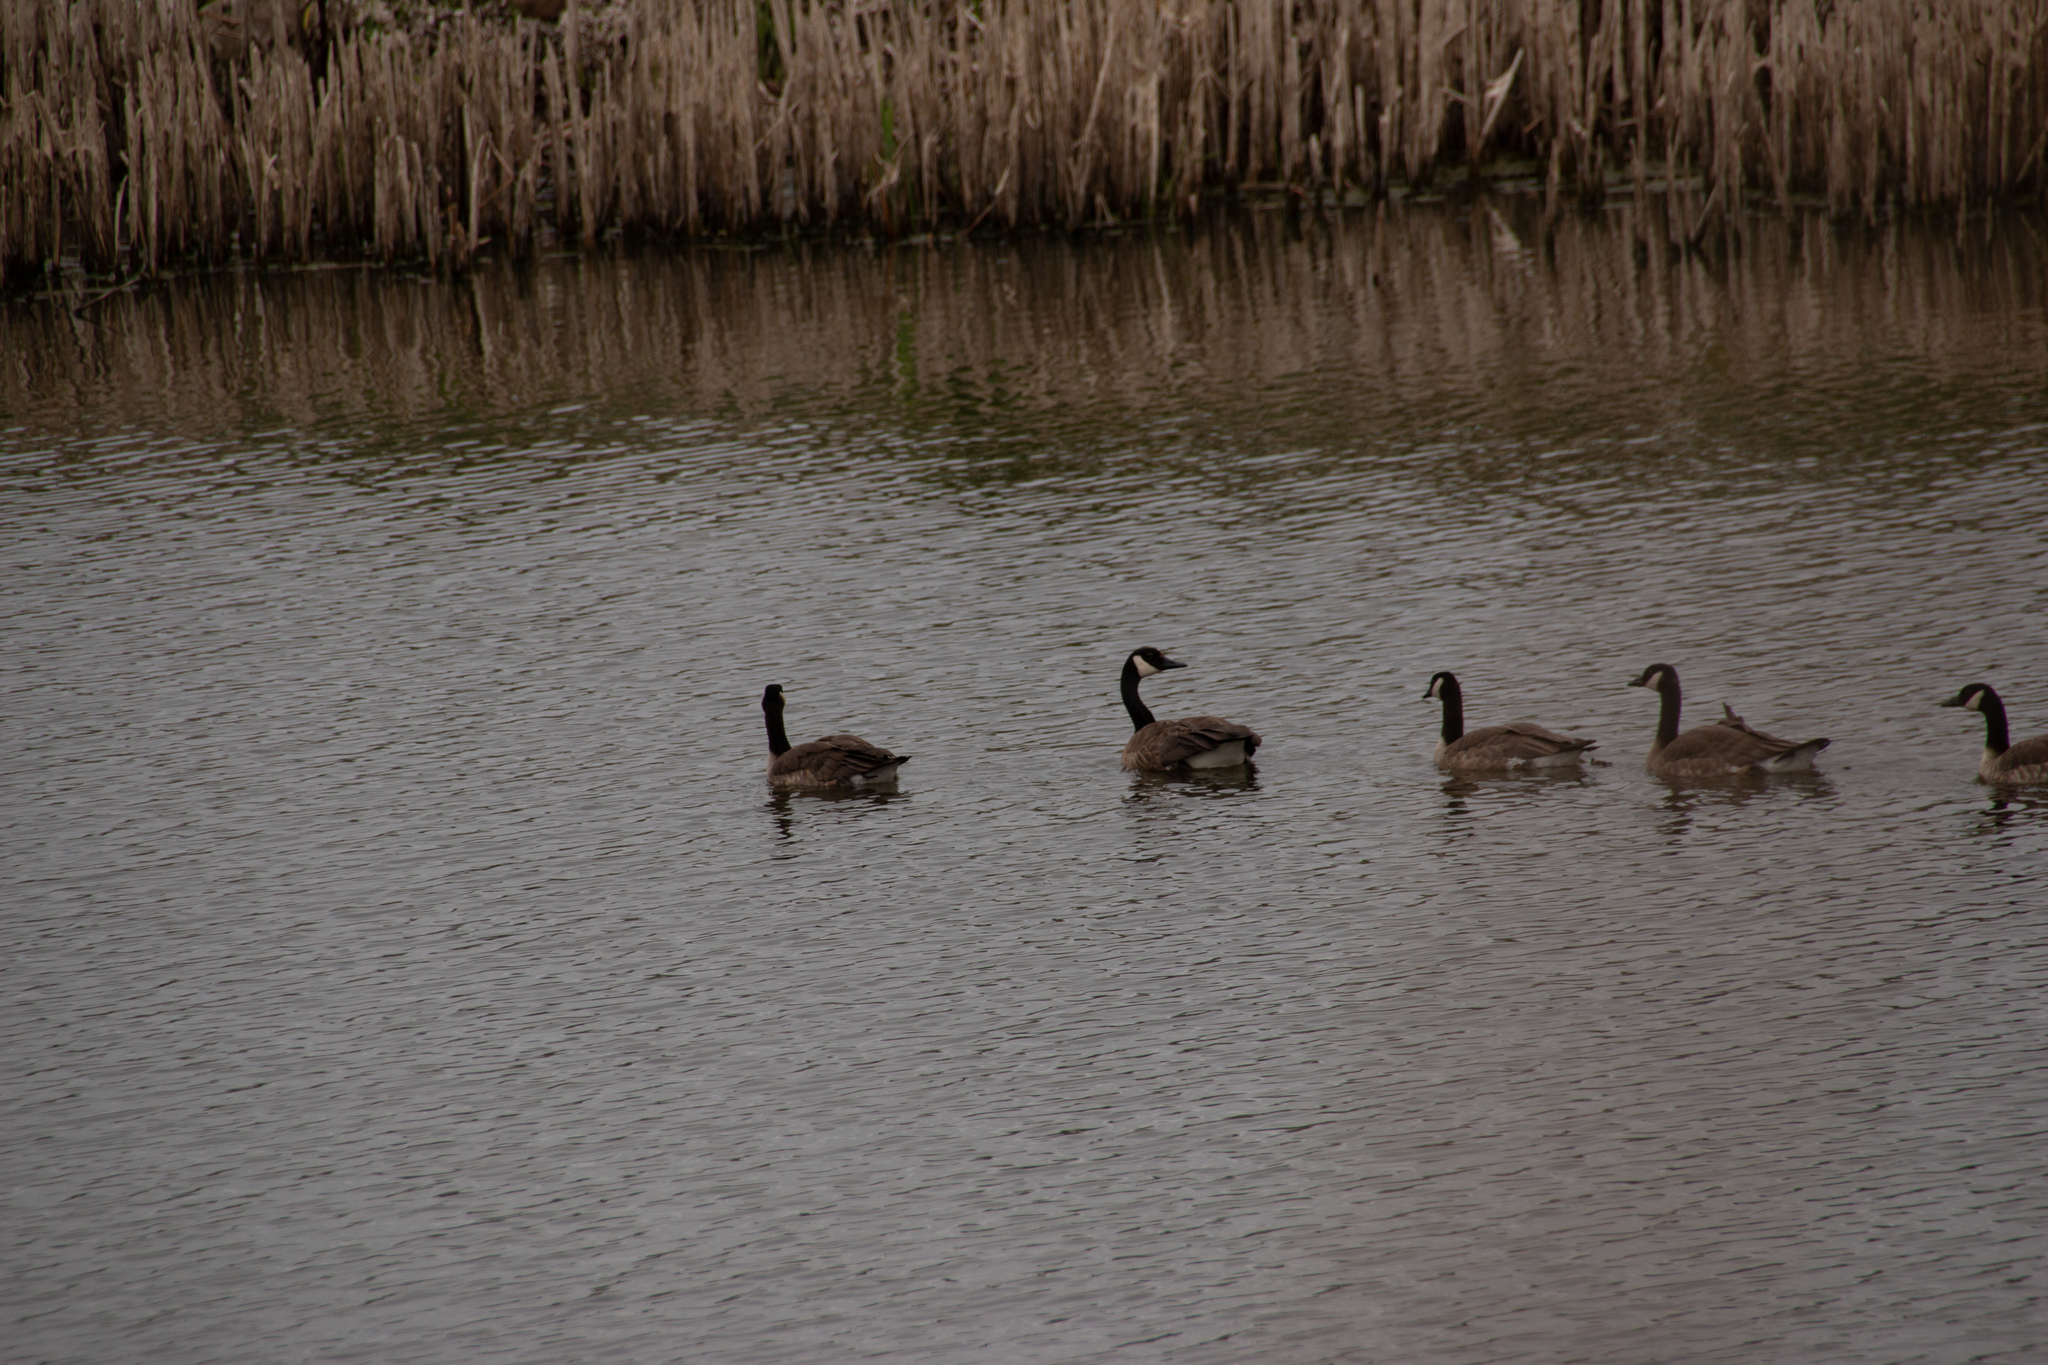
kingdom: Animalia
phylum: Chordata
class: Aves
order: Anseriformes
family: Anatidae
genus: Branta
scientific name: Branta canadensis
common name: Canada goose
